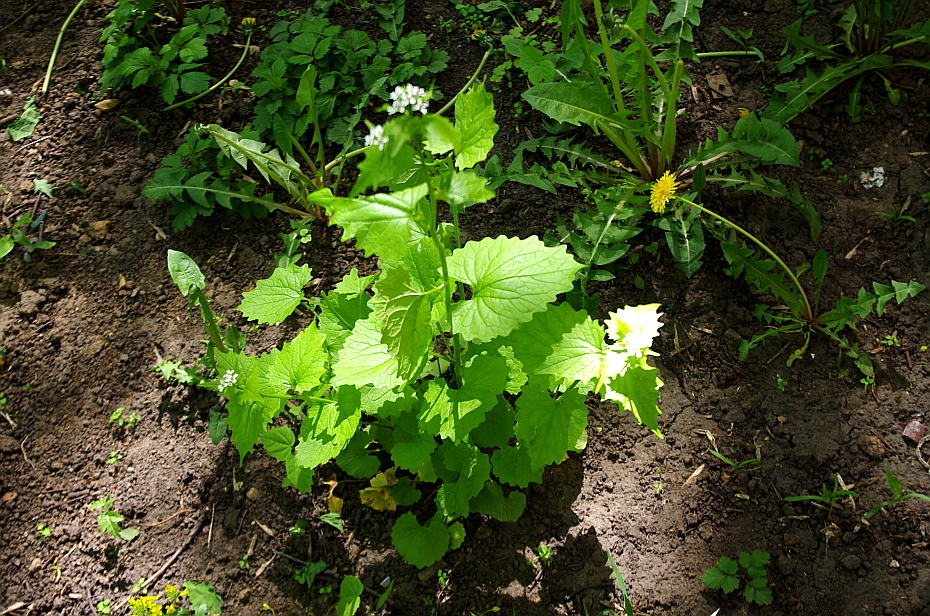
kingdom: Plantae
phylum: Tracheophyta
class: Magnoliopsida
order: Brassicales
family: Brassicaceae
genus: Alliaria
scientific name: Alliaria petiolata
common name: Garlic mustard
